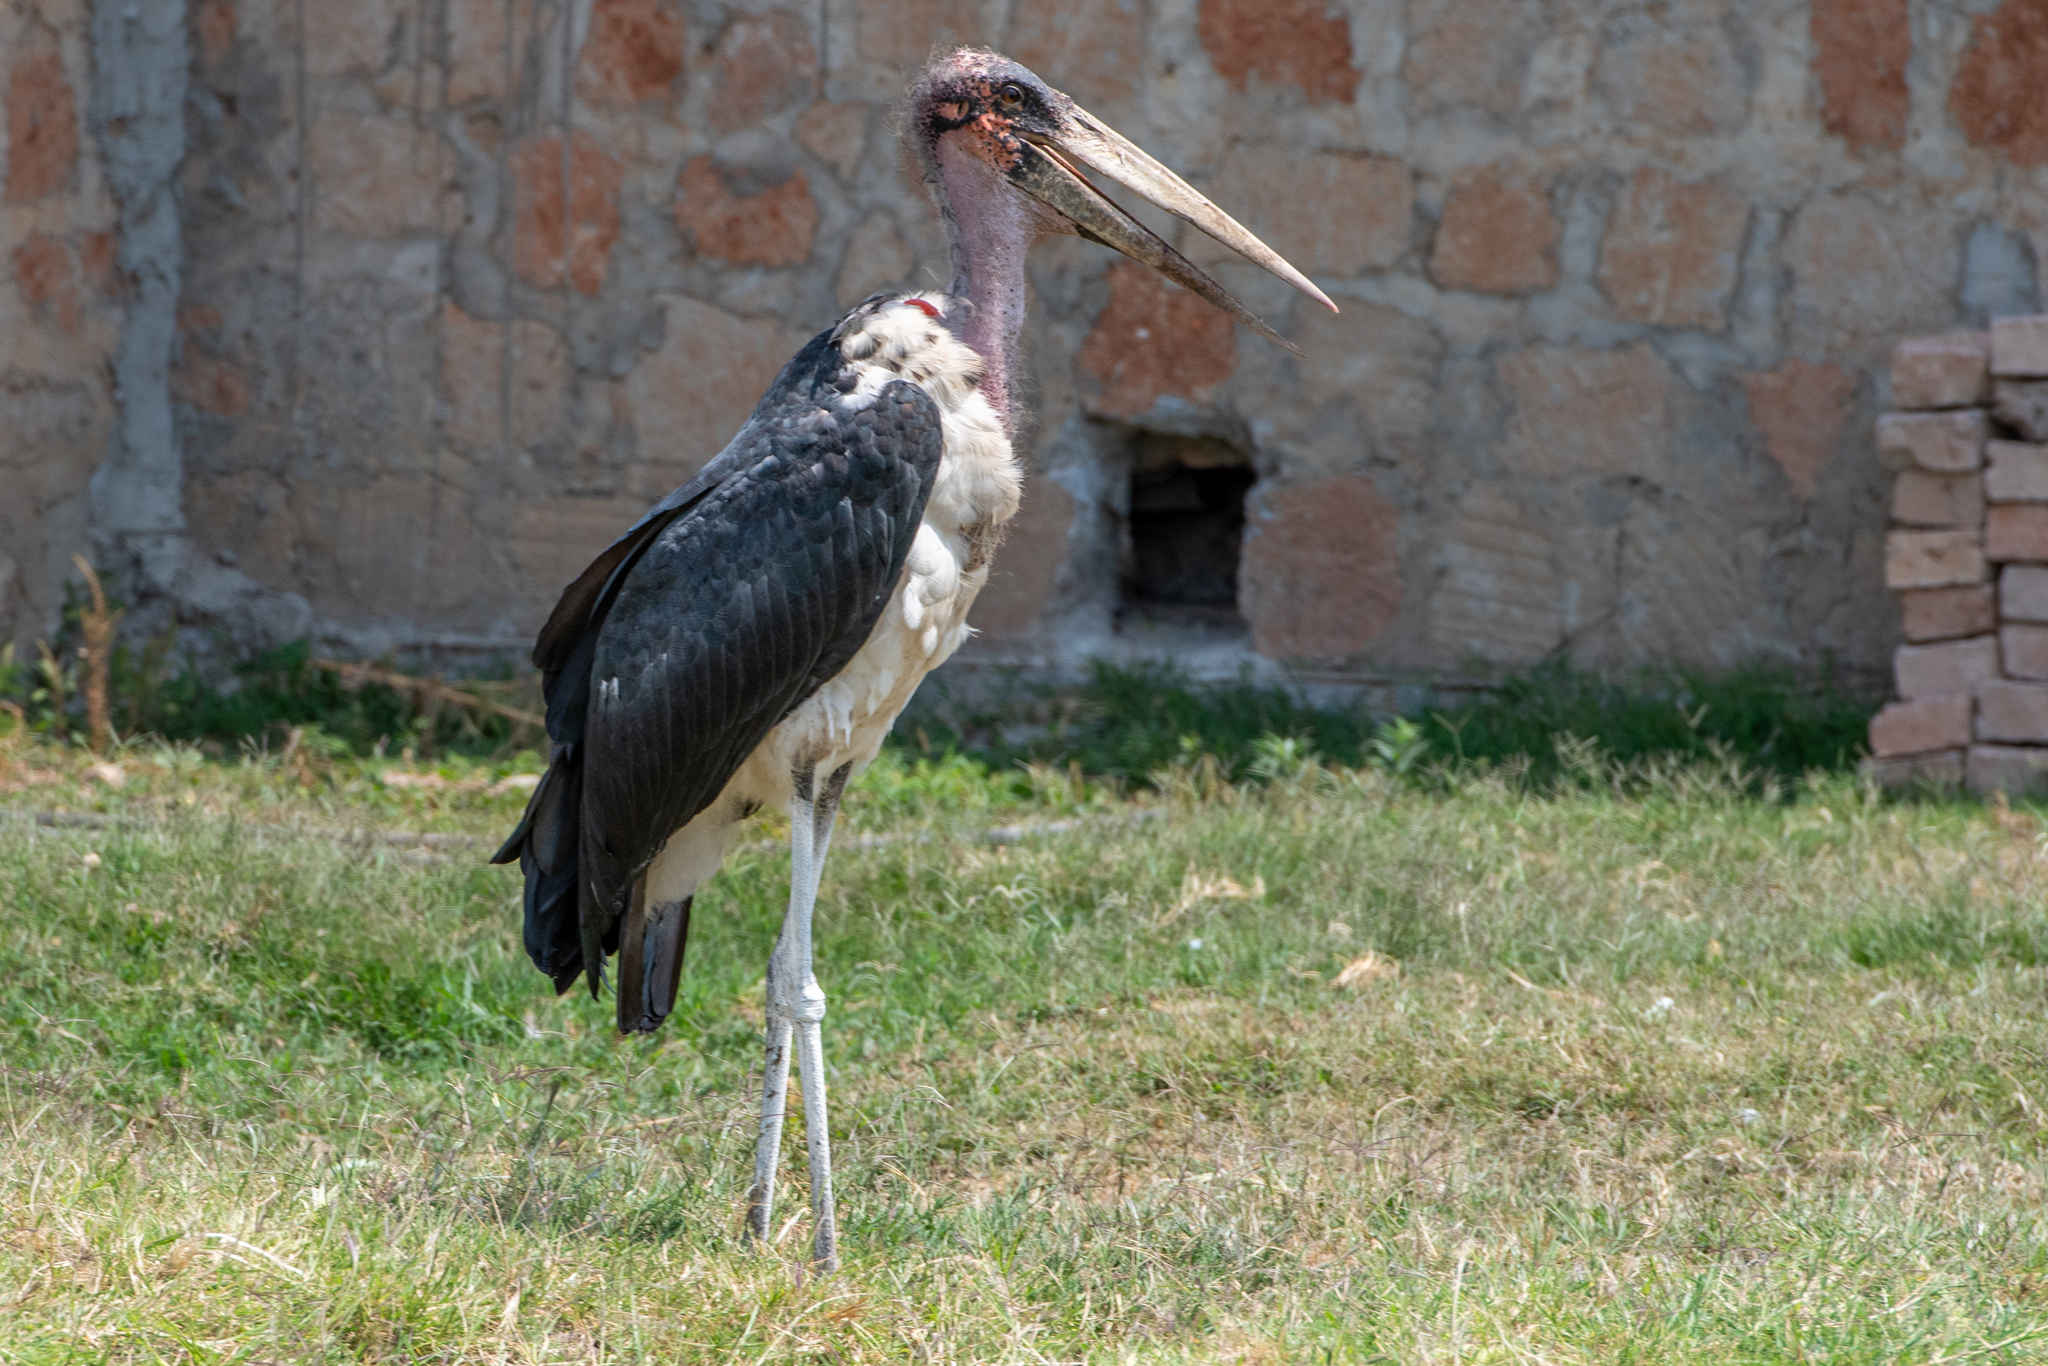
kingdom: Animalia
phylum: Chordata
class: Aves
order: Ciconiiformes
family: Ciconiidae
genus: Leptoptilos
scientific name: Leptoptilos crumenifer
